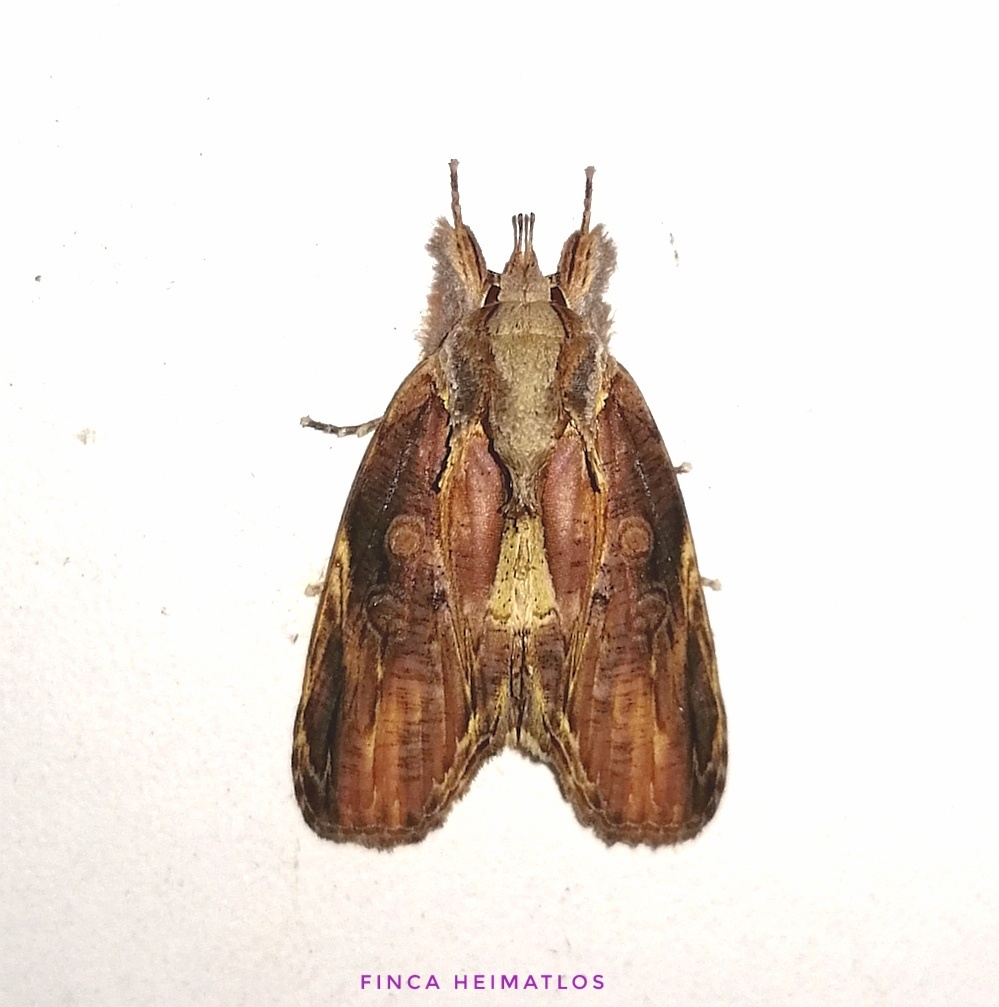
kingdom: Animalia
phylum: Arthropoda
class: Insecta
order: Lepidoptera
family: Nolidae
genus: Iscadia
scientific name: Iscadia purpurascens
